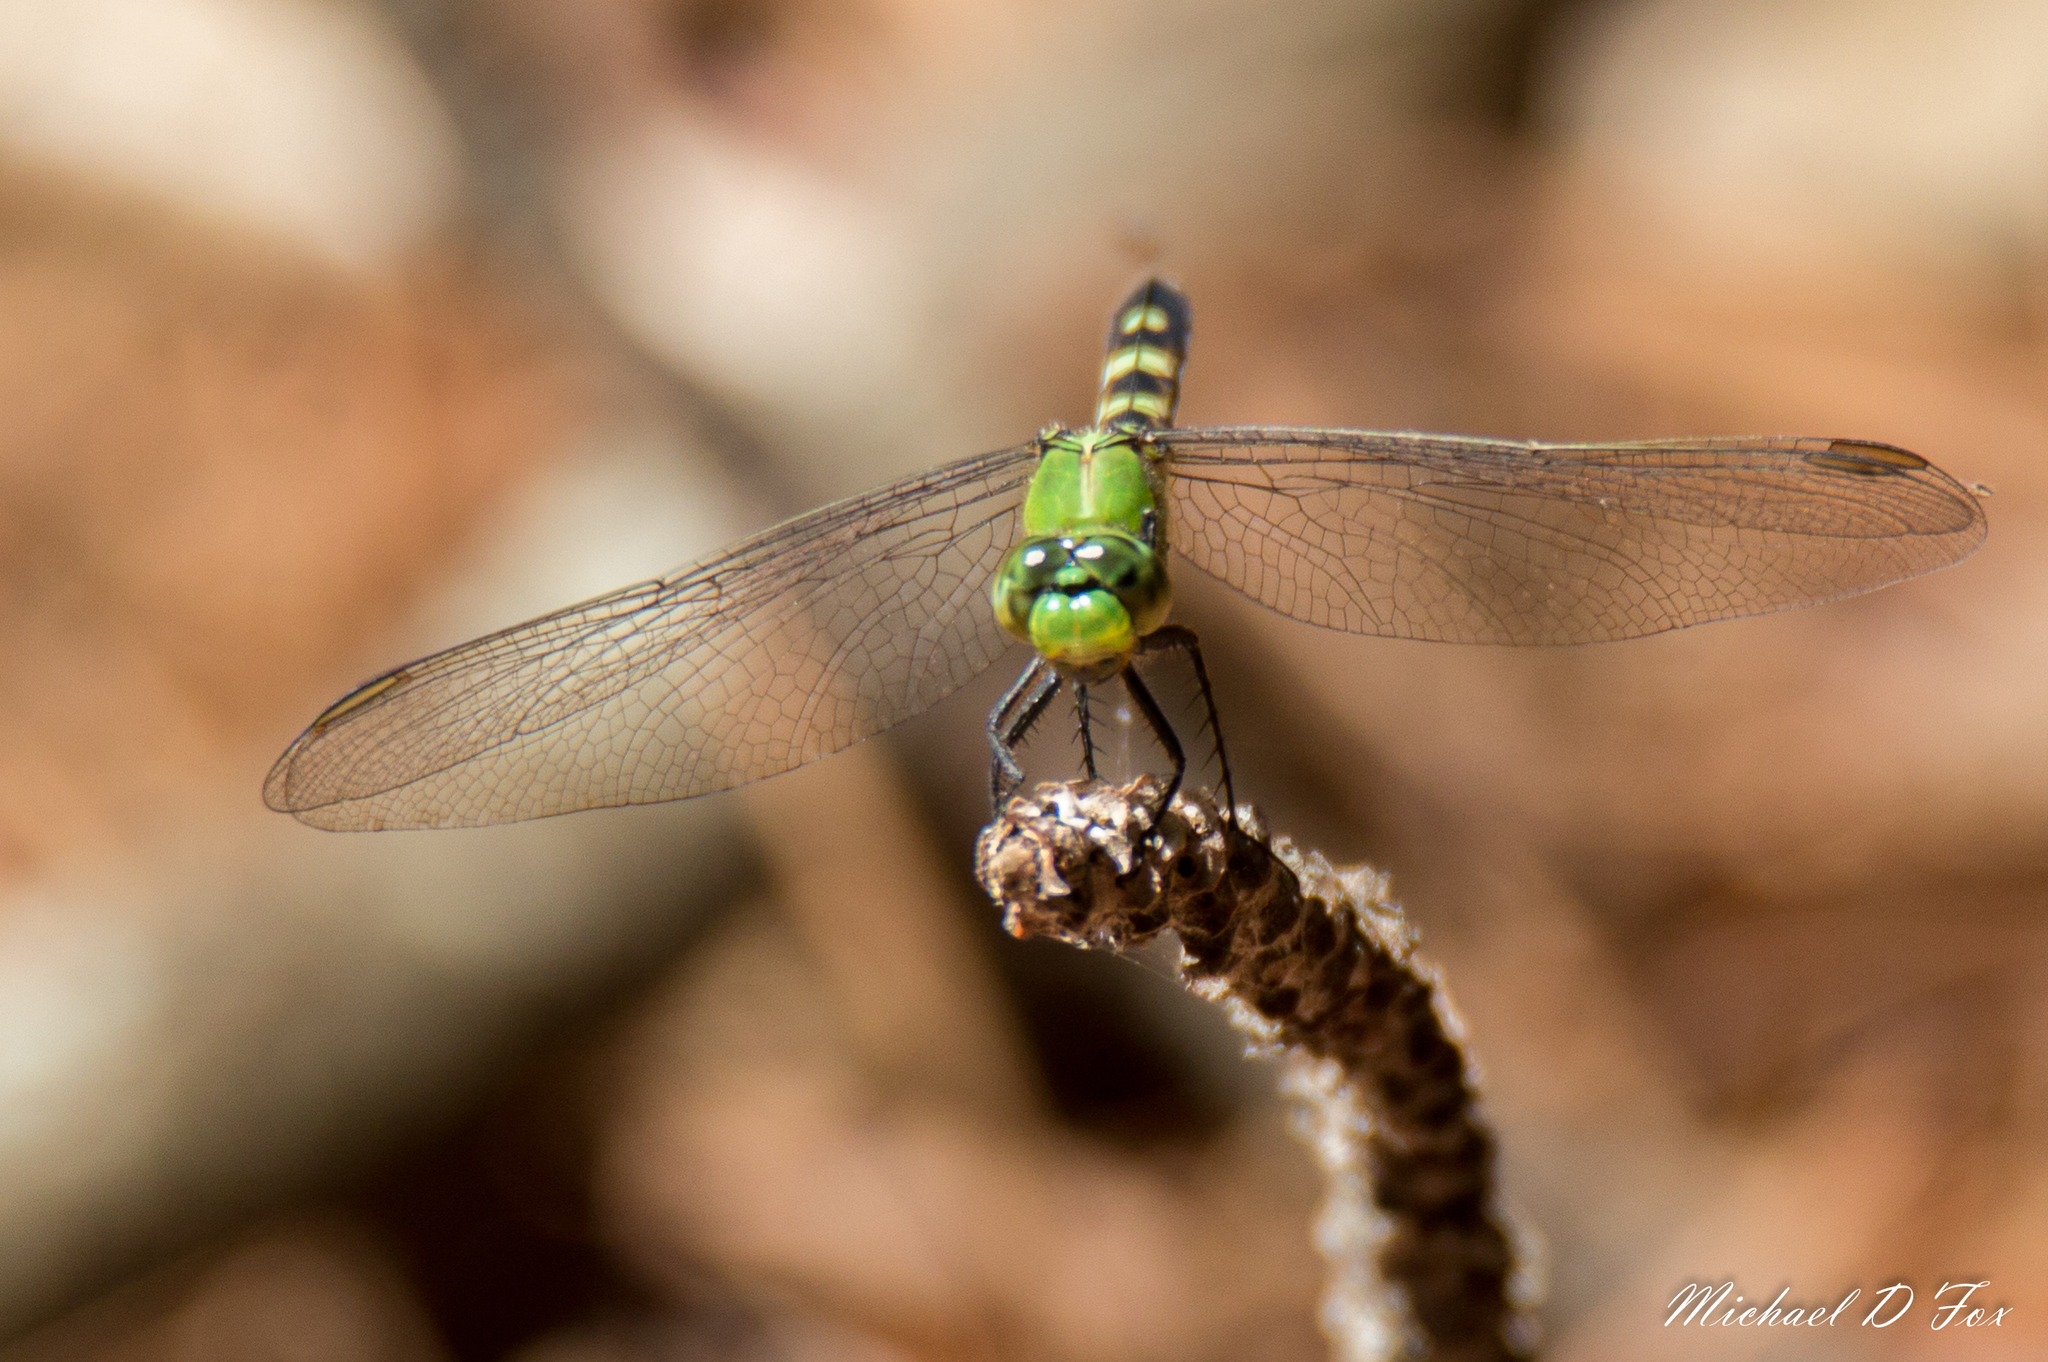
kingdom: Animalia
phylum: Arthropoda
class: Insecta
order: Odonata
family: Libellulidae
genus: Erythemis
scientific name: Erythemis simplicicollis
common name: Eastern pondhawk
